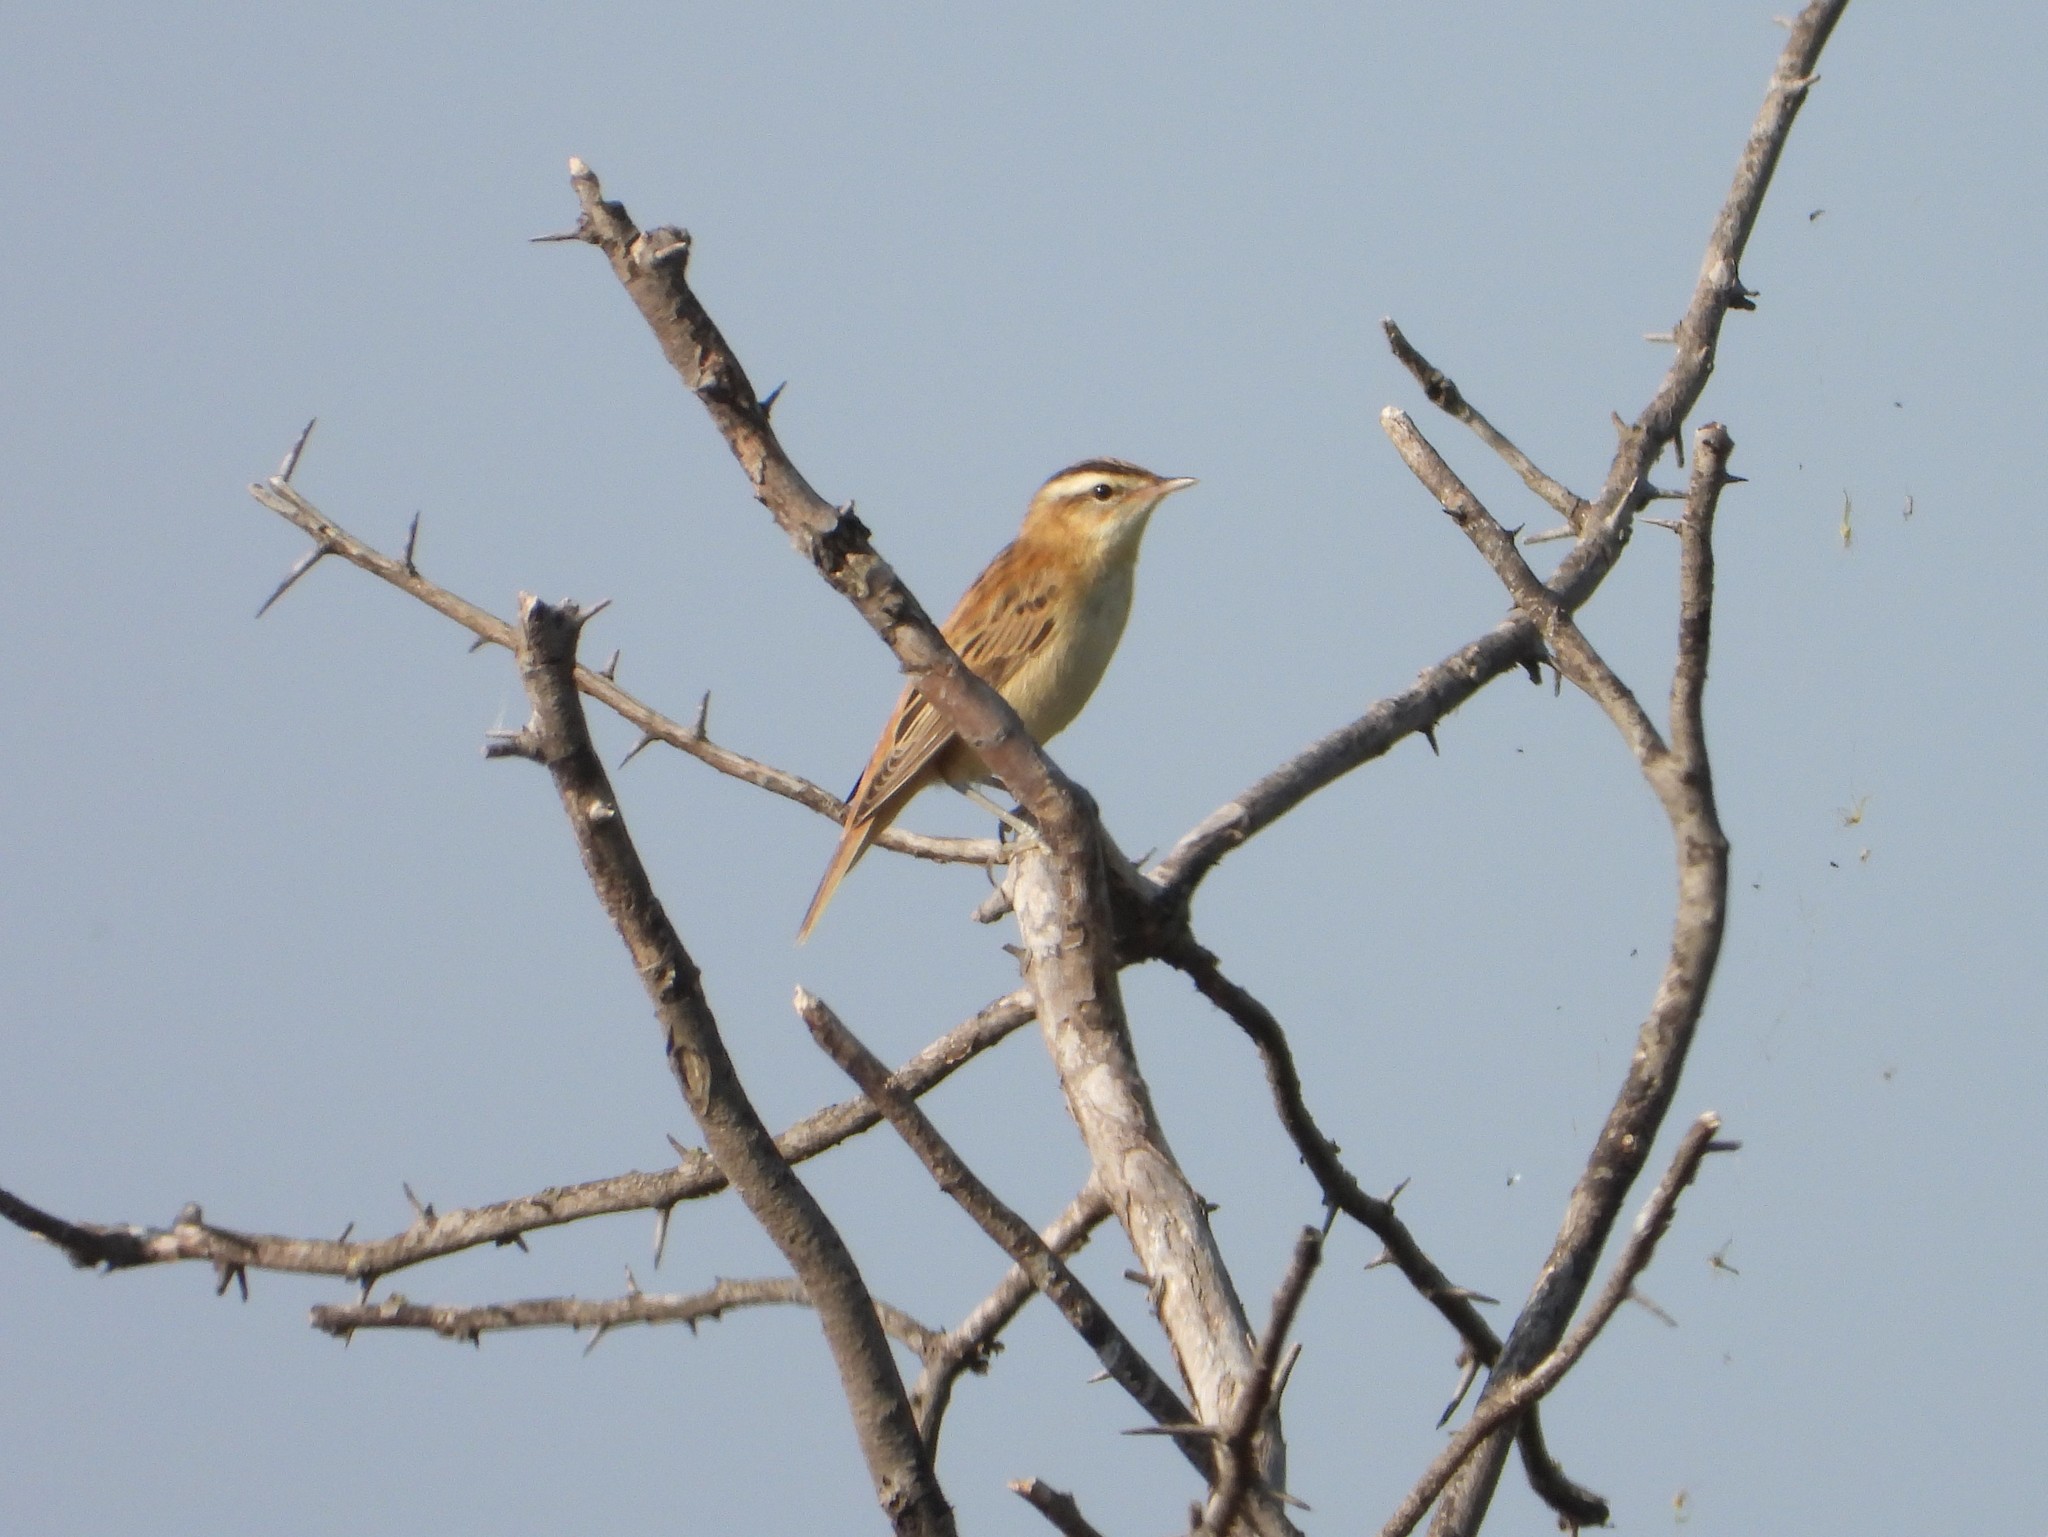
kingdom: Animalia
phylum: Chordata
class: Aves
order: Passeriformes
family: Acrocephalidae
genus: Acrocephalus
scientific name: Acrocephalus schoenobaenus
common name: Sedge warbler
